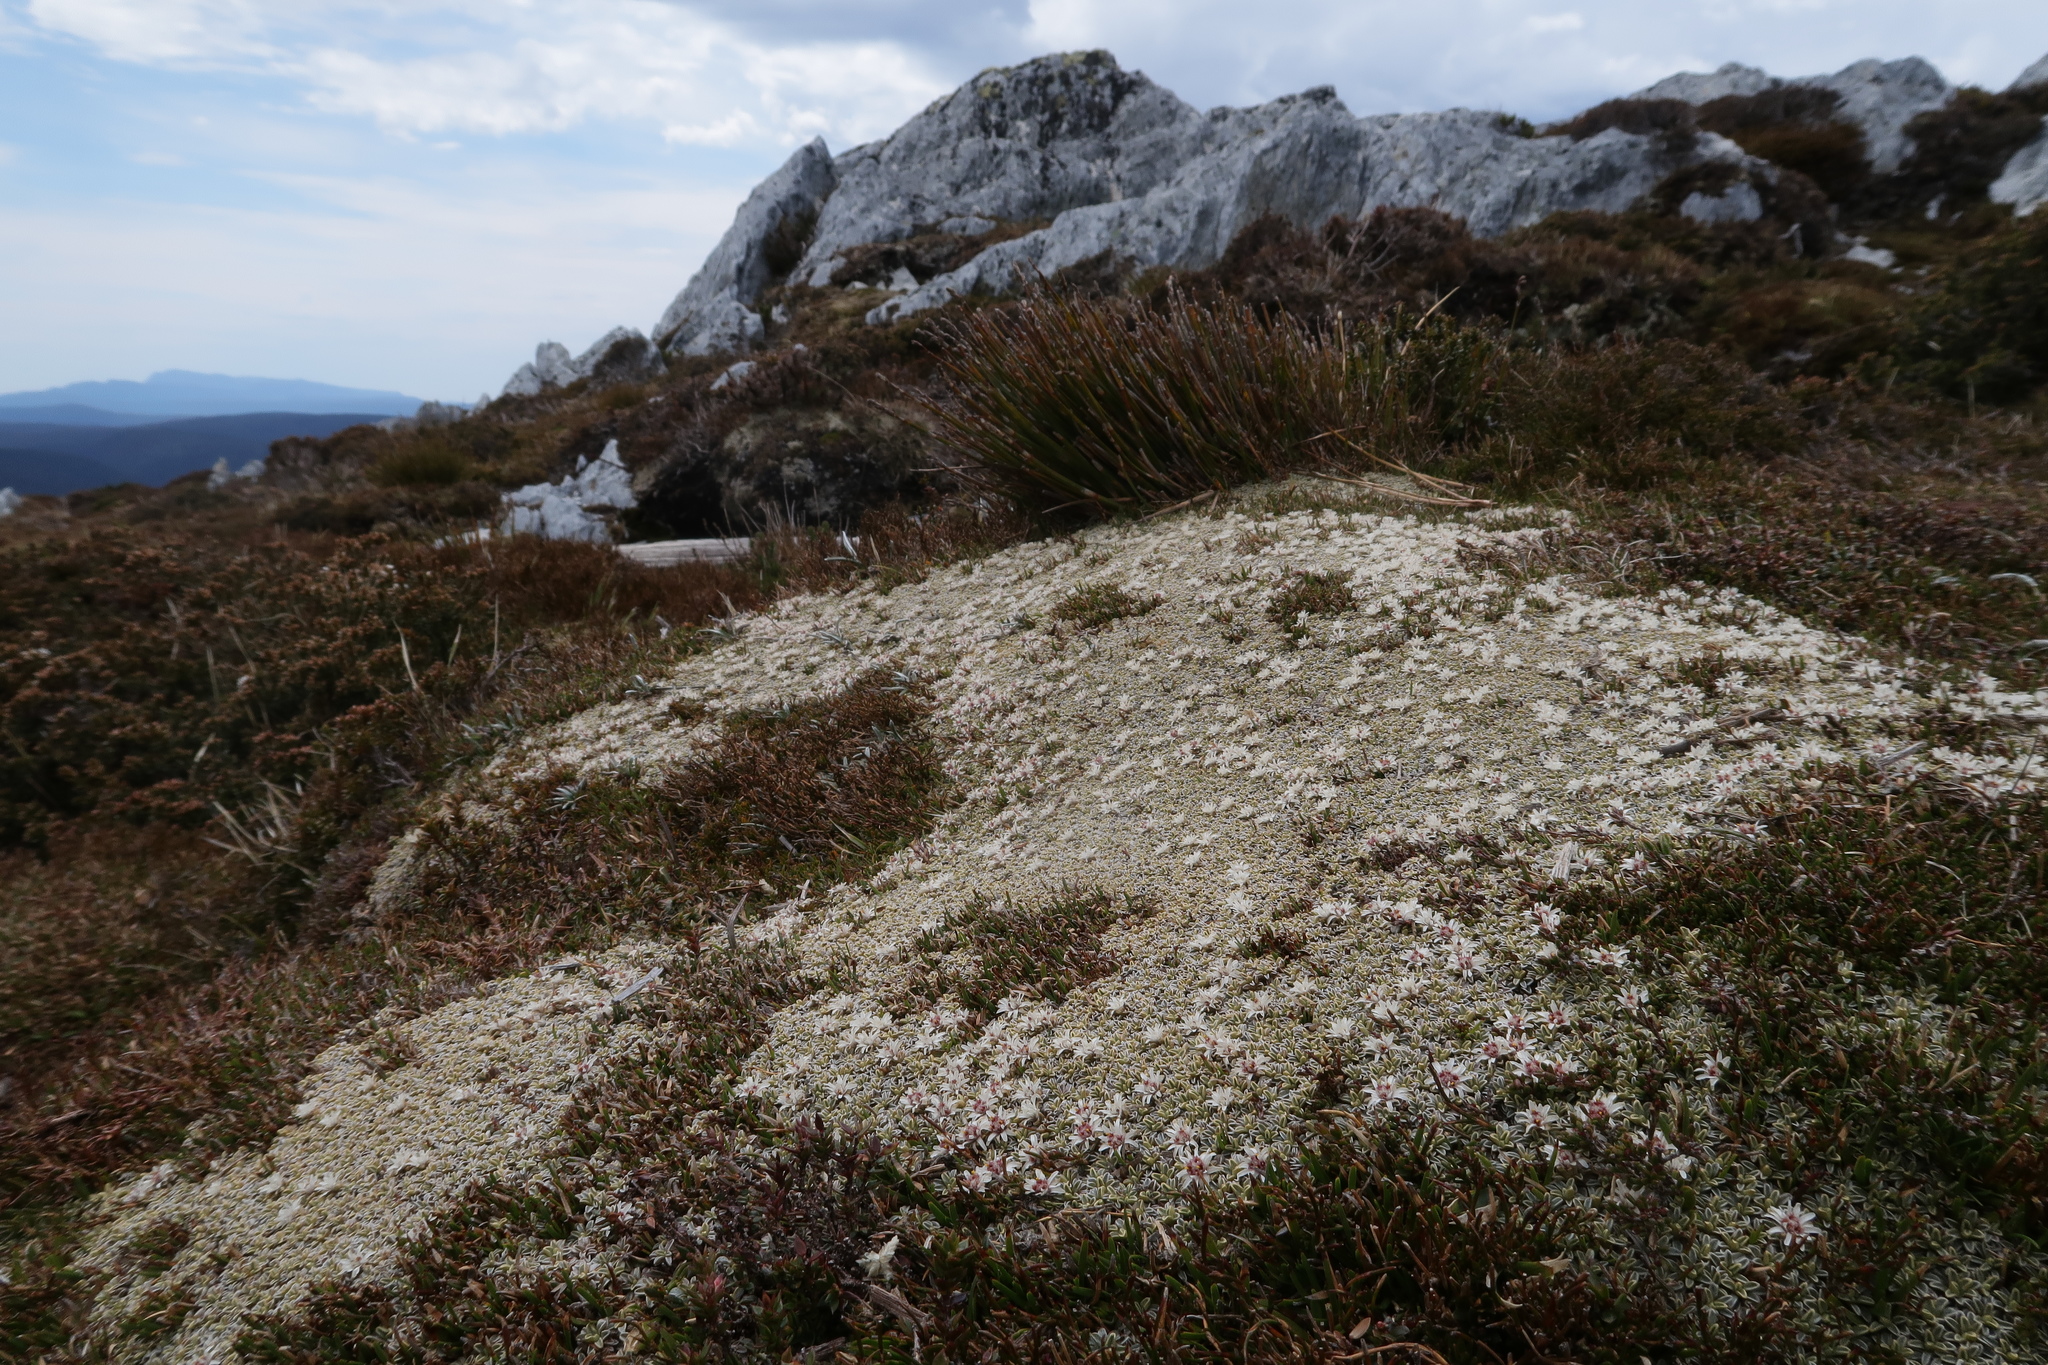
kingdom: Plantae
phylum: Tracheophyta
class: Magnoliopsida
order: Asterales
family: Asteraceae
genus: Ewartia
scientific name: Ewartia meredithae
